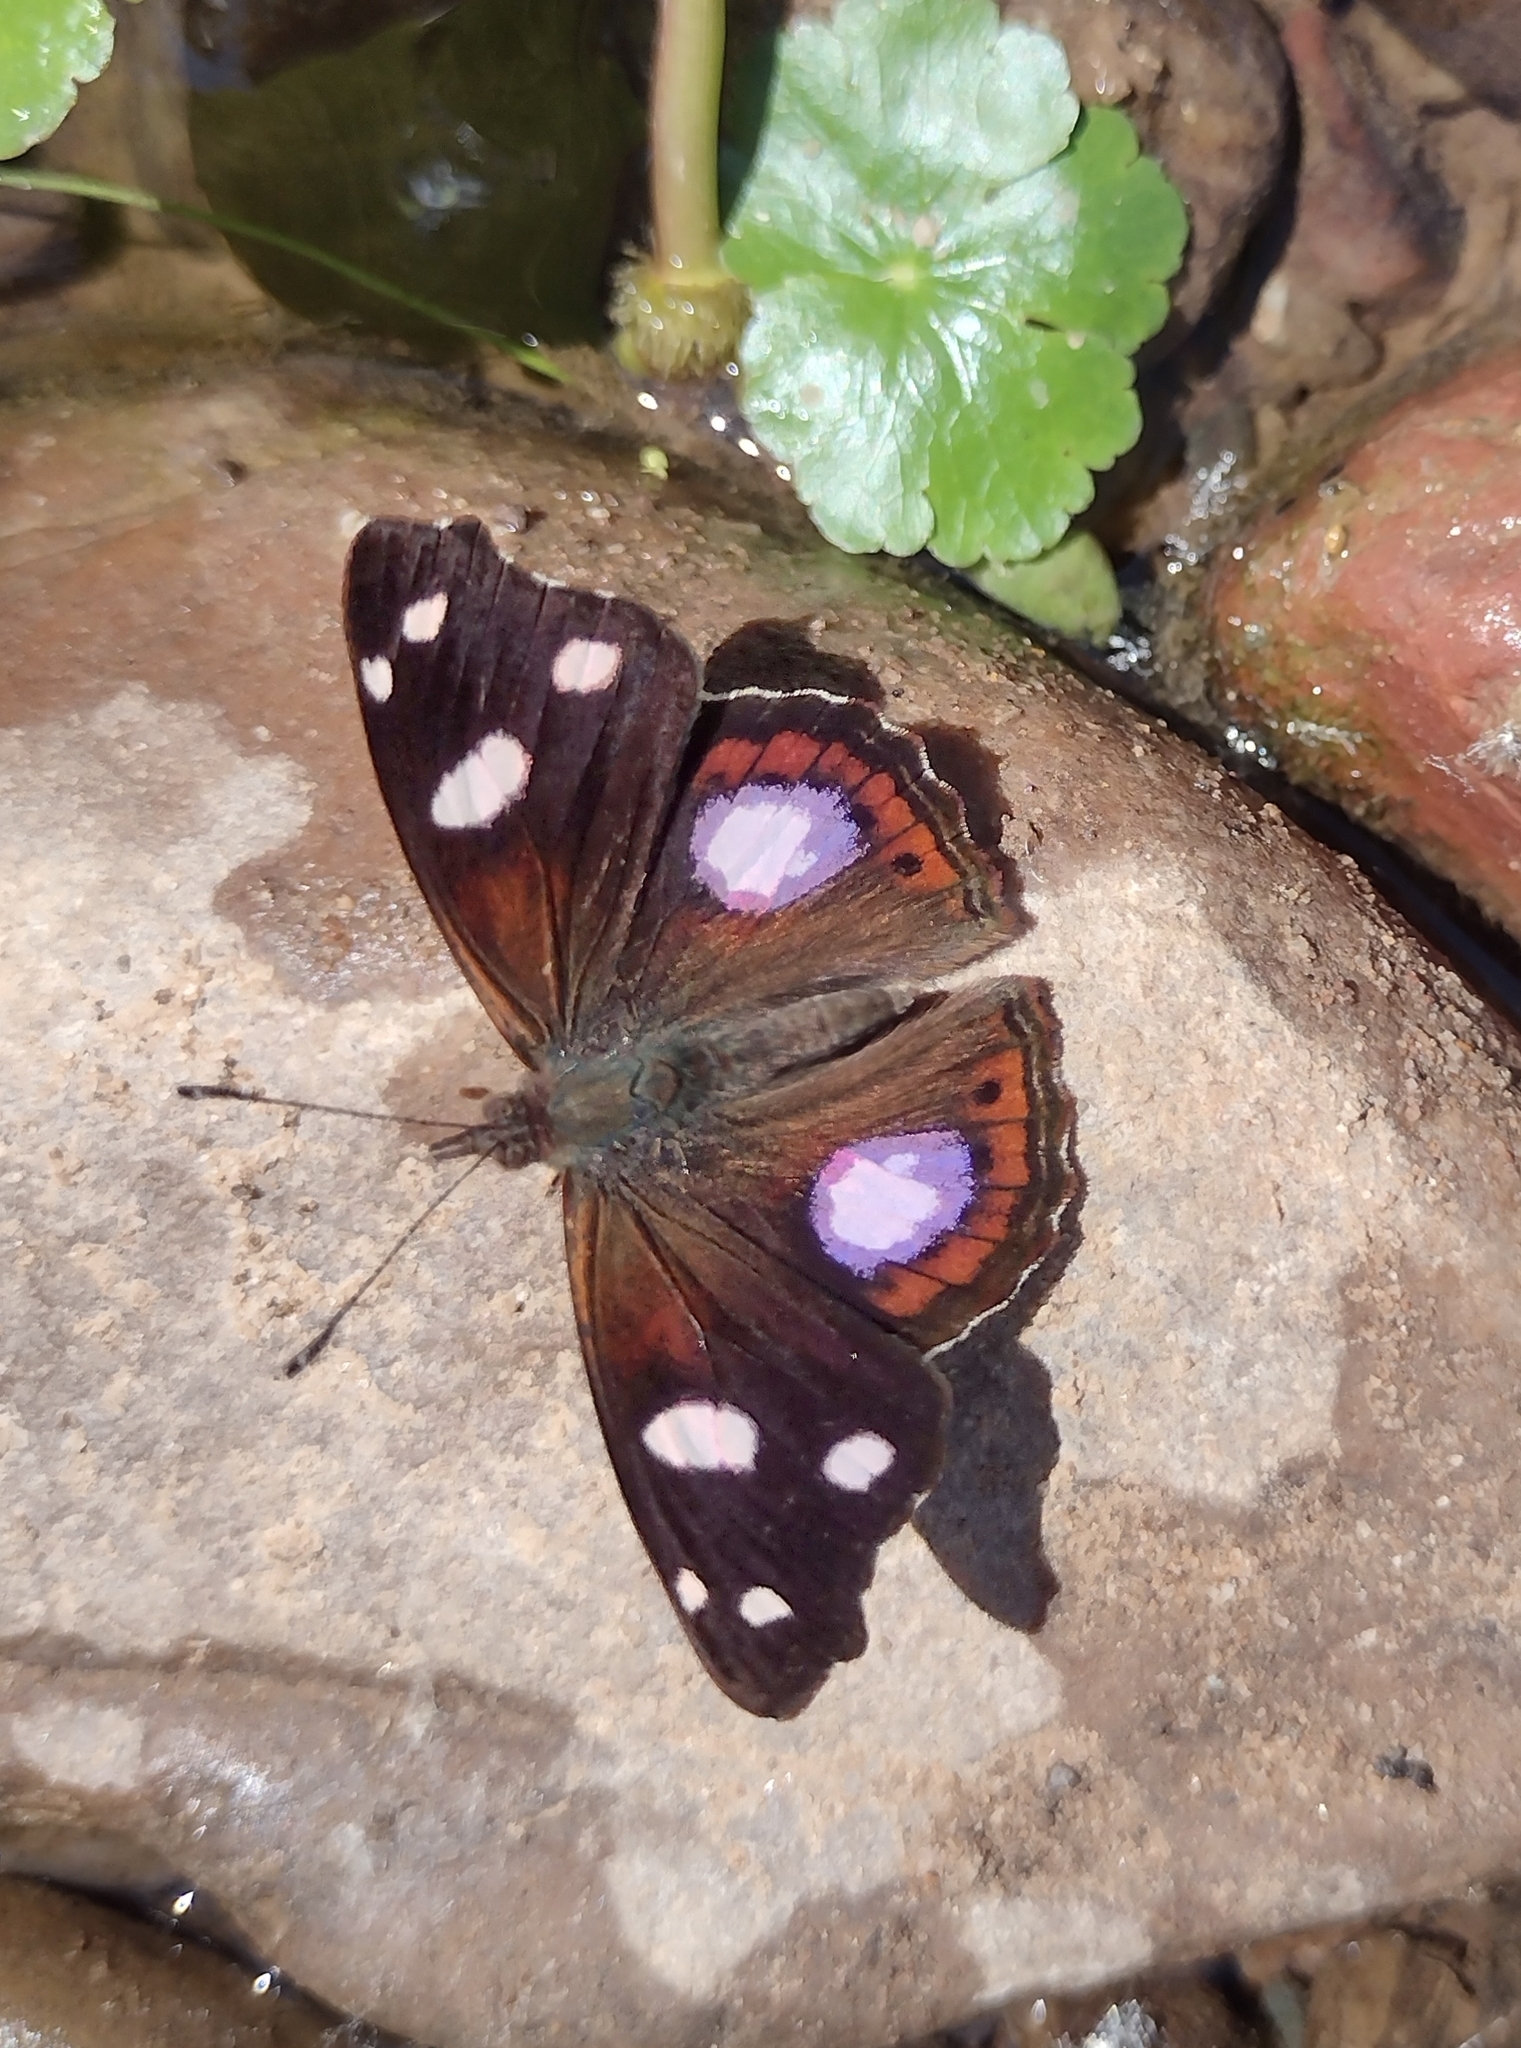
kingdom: Animalia
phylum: Arthropoda
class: Insecta
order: Lepidoptera
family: Nymphalidae
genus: Cybdelis
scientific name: Cybdelis
